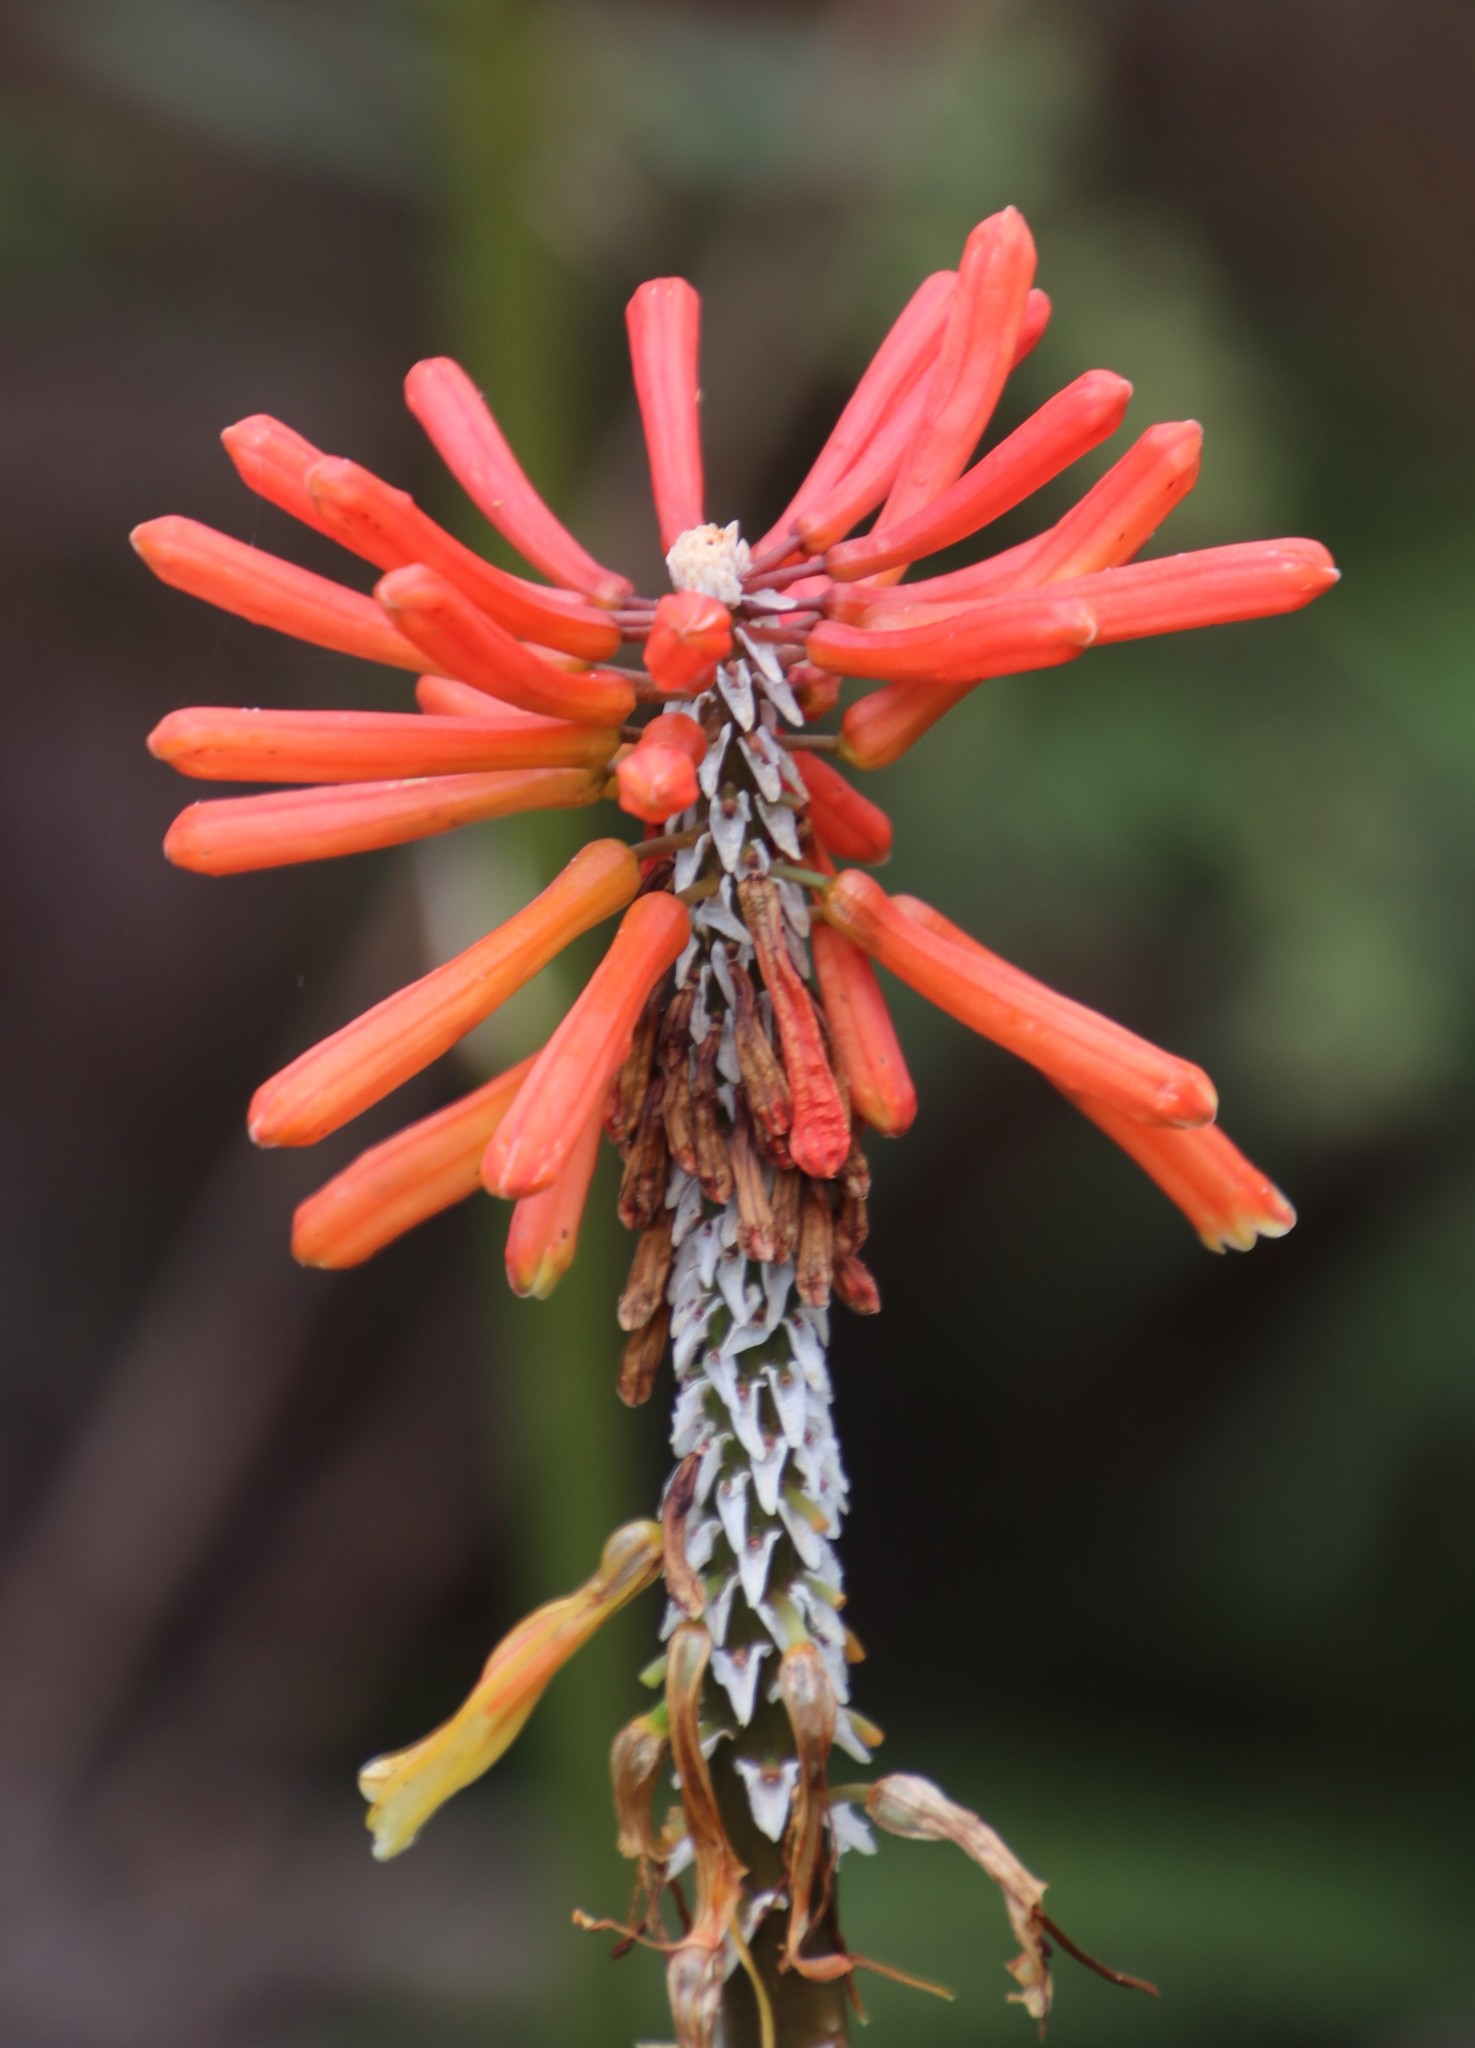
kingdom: Plantae
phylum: Tracheophyta
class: Liliopsida
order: Asparagales
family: Asphodelaceae
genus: Kniphofia
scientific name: Kniphofia uvaria
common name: Red-hot-poker
